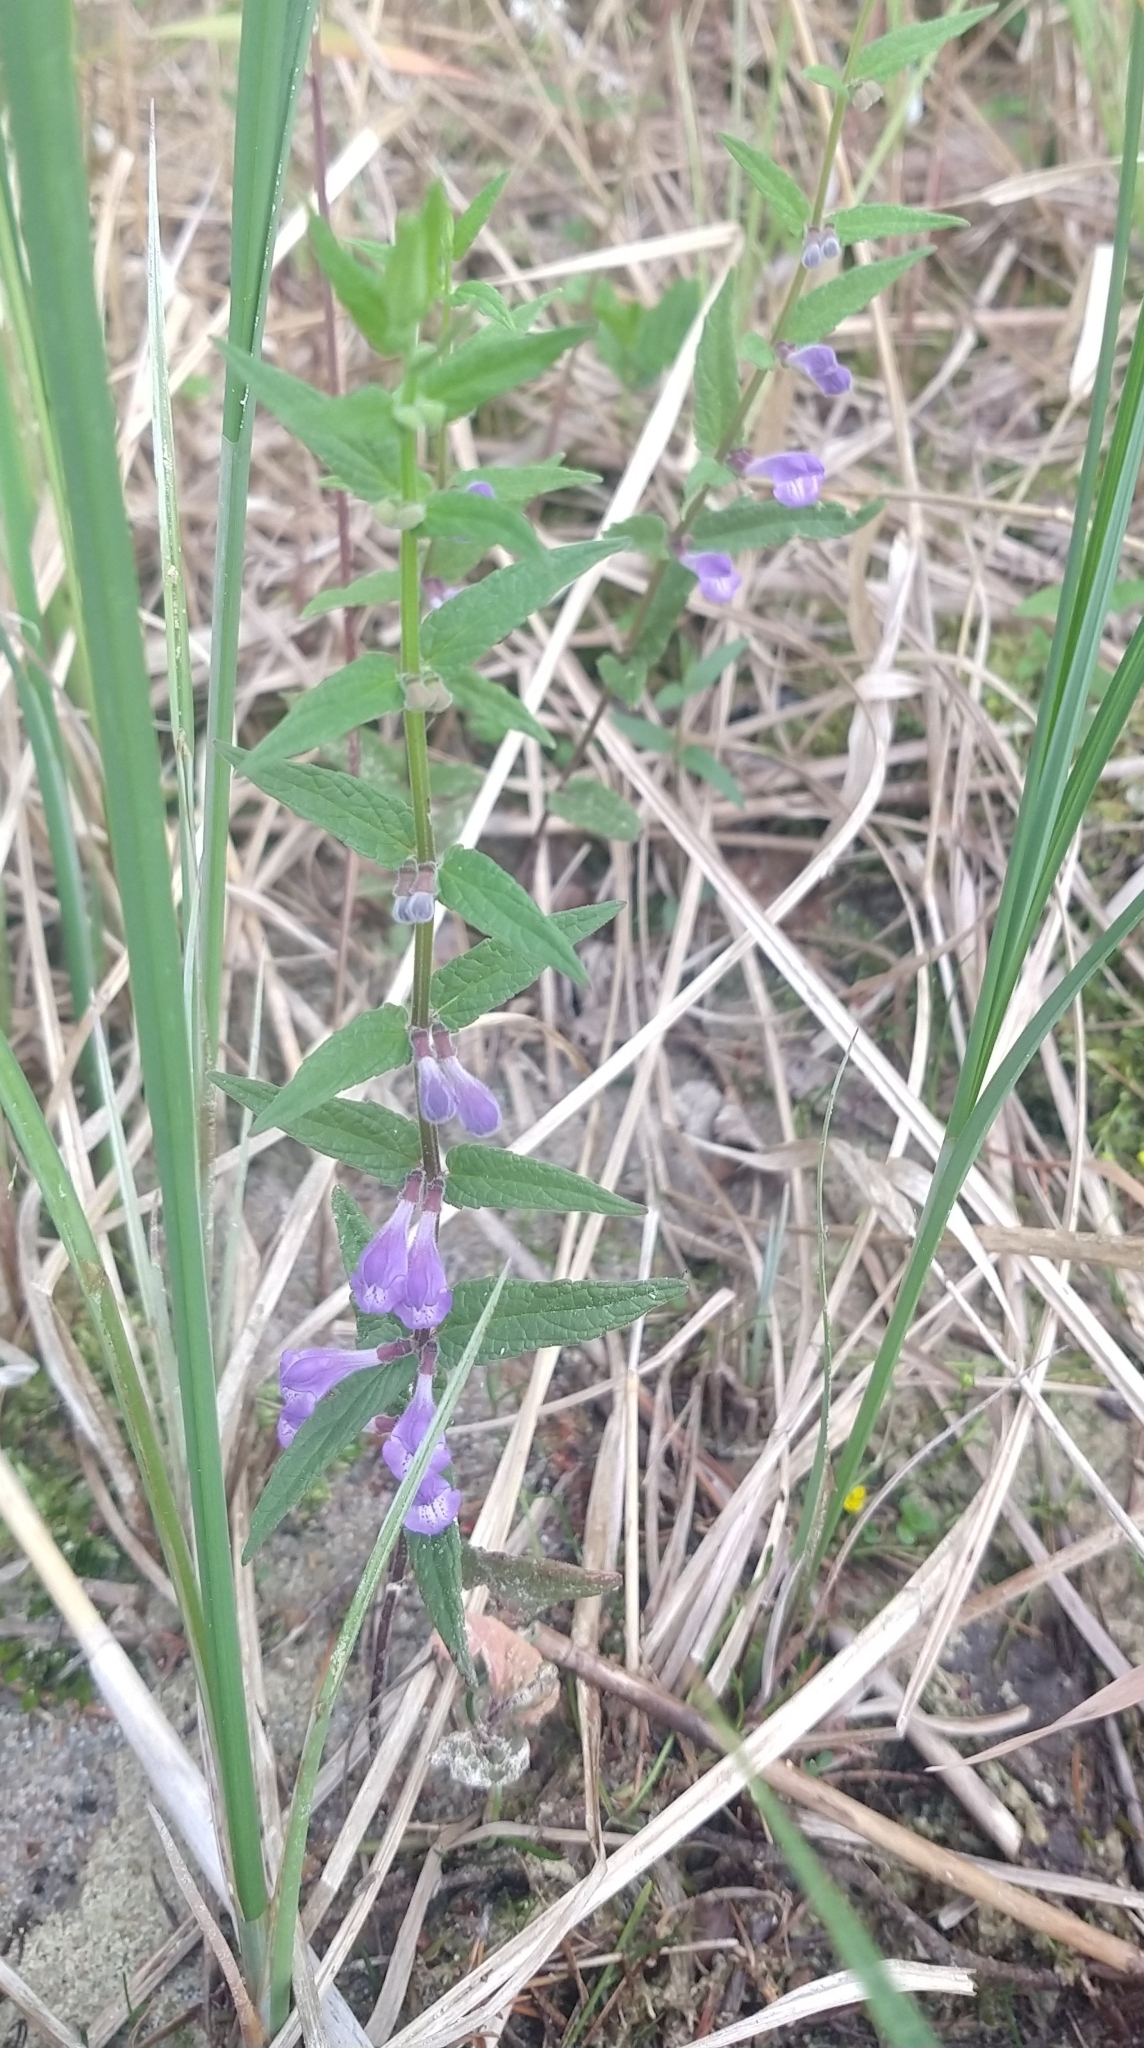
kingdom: Plantae
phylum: Tracheophyta
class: Magnoliopsida
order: Lamiales
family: Lamiaceae
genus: Scutellaria
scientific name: Scutellaria galericulata
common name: Skullcap
